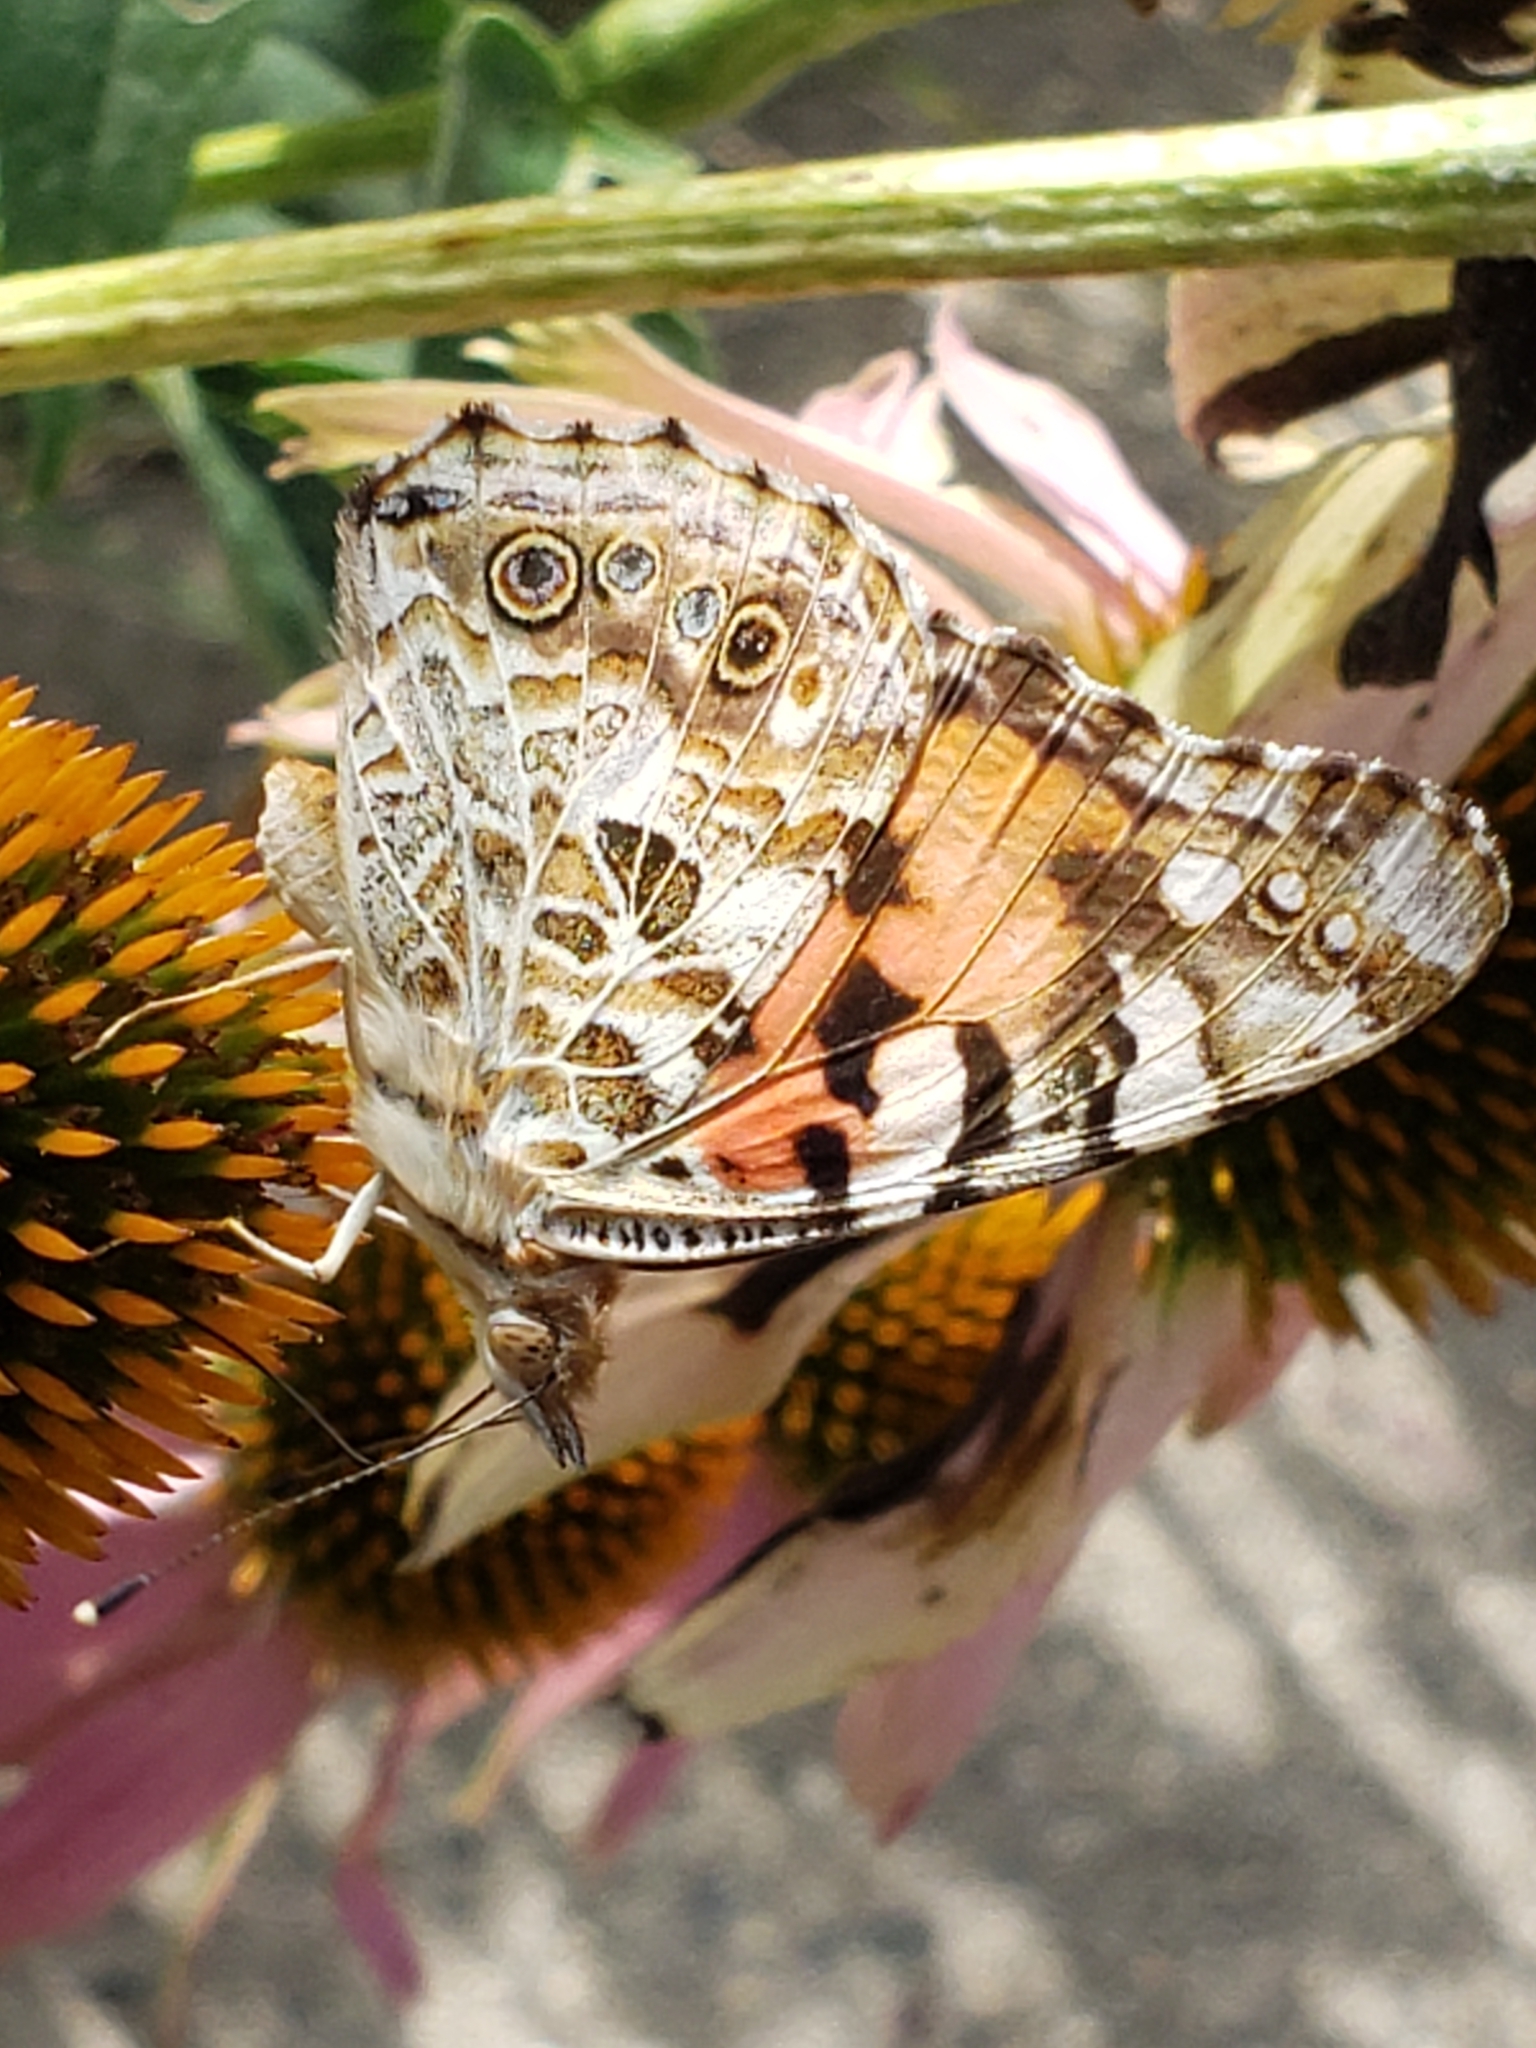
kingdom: Animalia
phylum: Arthropoda
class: Insecta
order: Lepidoptera
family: Nymphalidae
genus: Vanessa
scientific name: Vanessa cardui
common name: Painted lady
